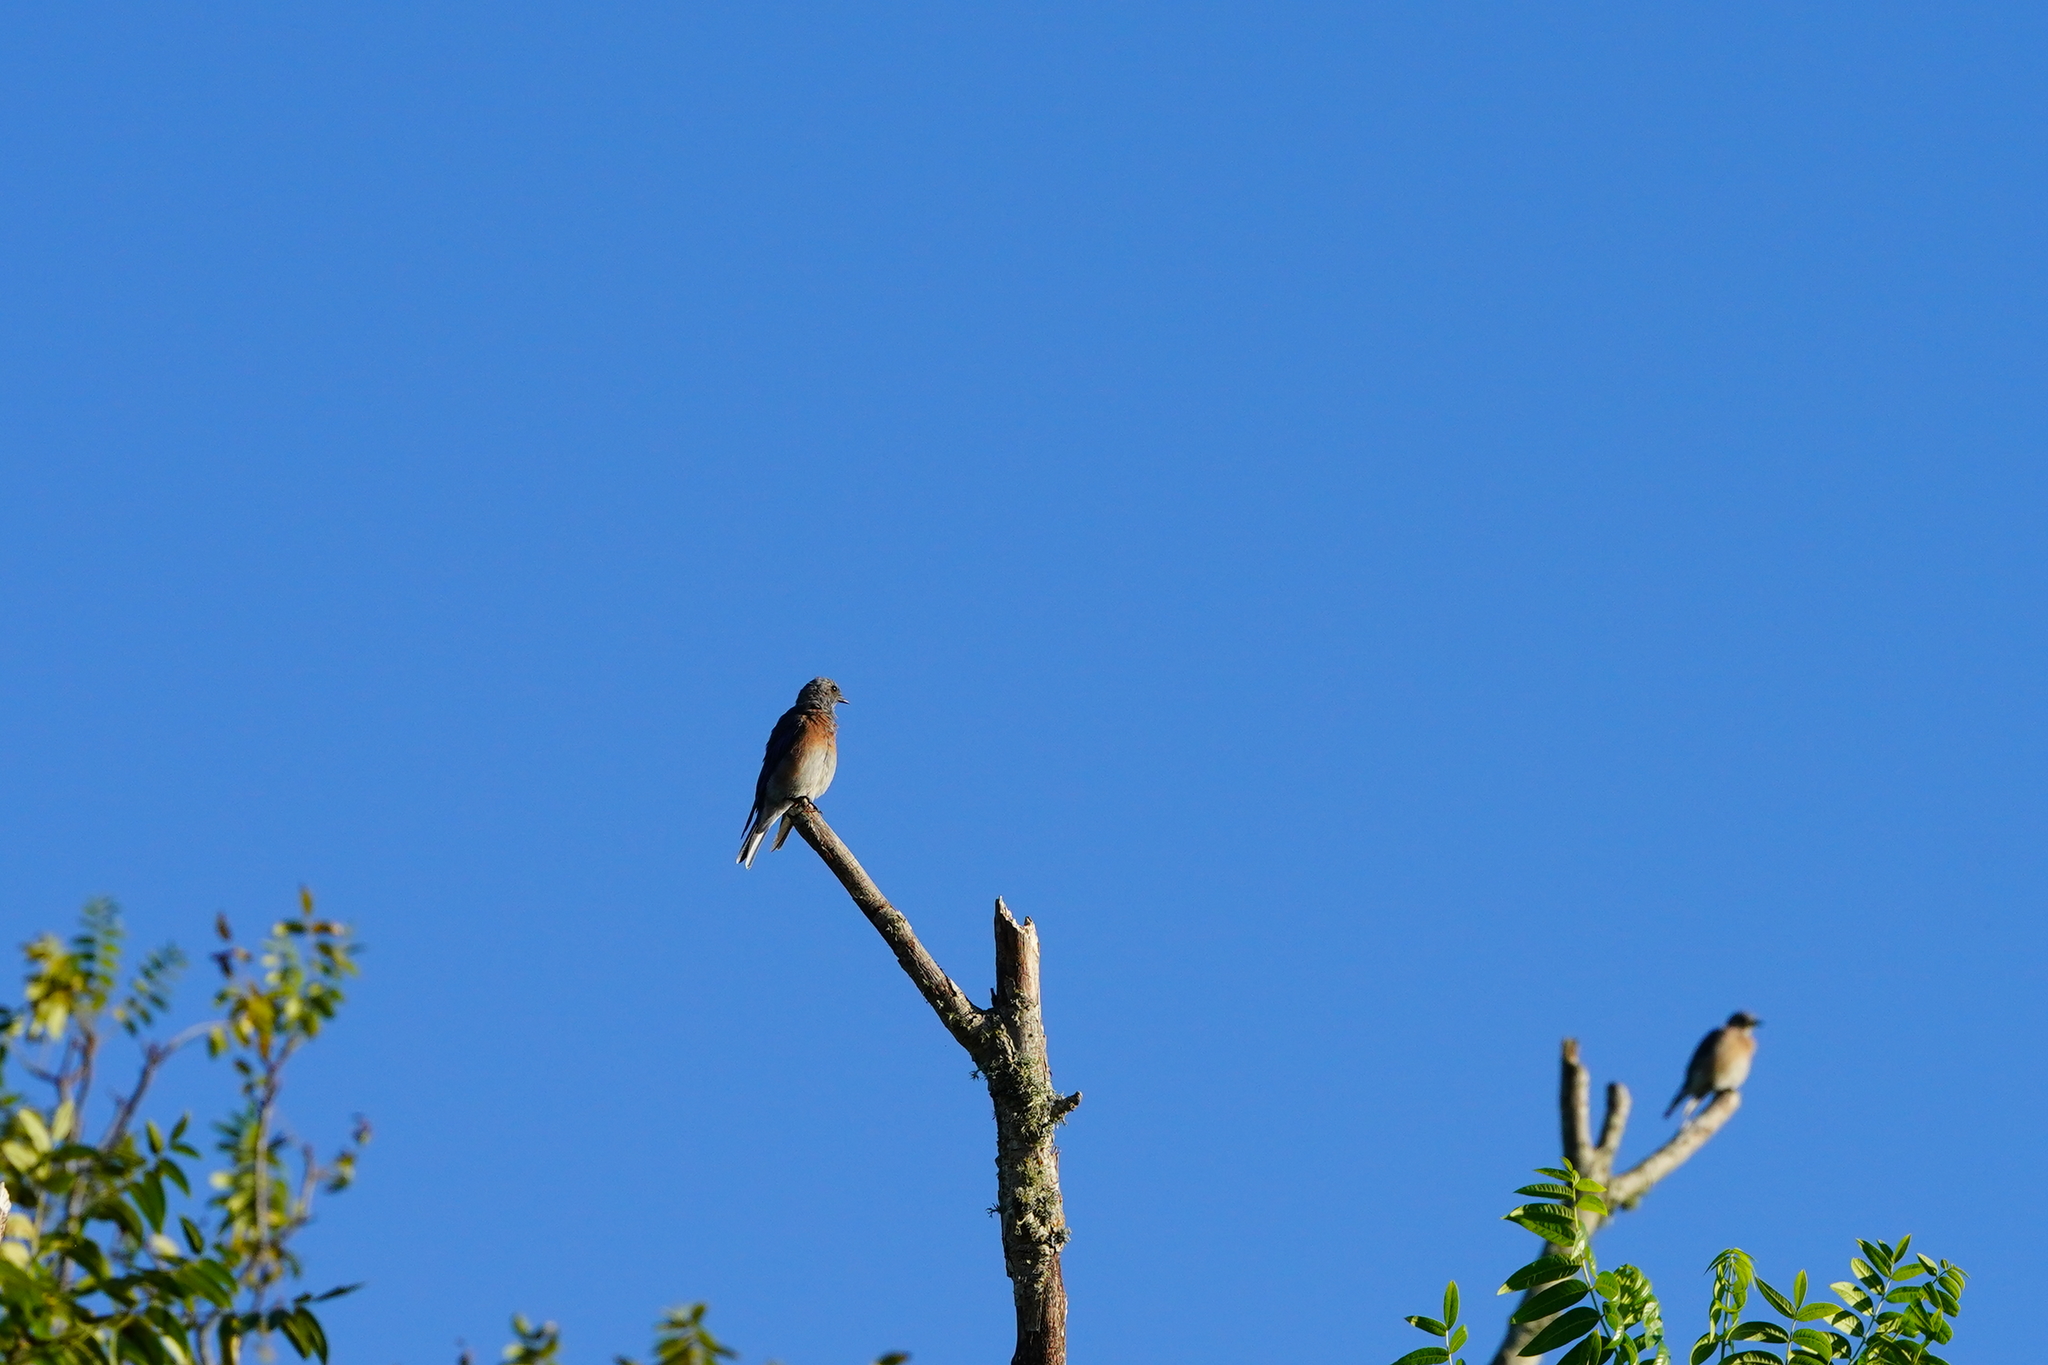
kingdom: Animalia
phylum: Chordata
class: Aves
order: Passeriformes
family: Turdidae
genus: Sialia
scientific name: Sialia mexicana
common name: Western bluebird
